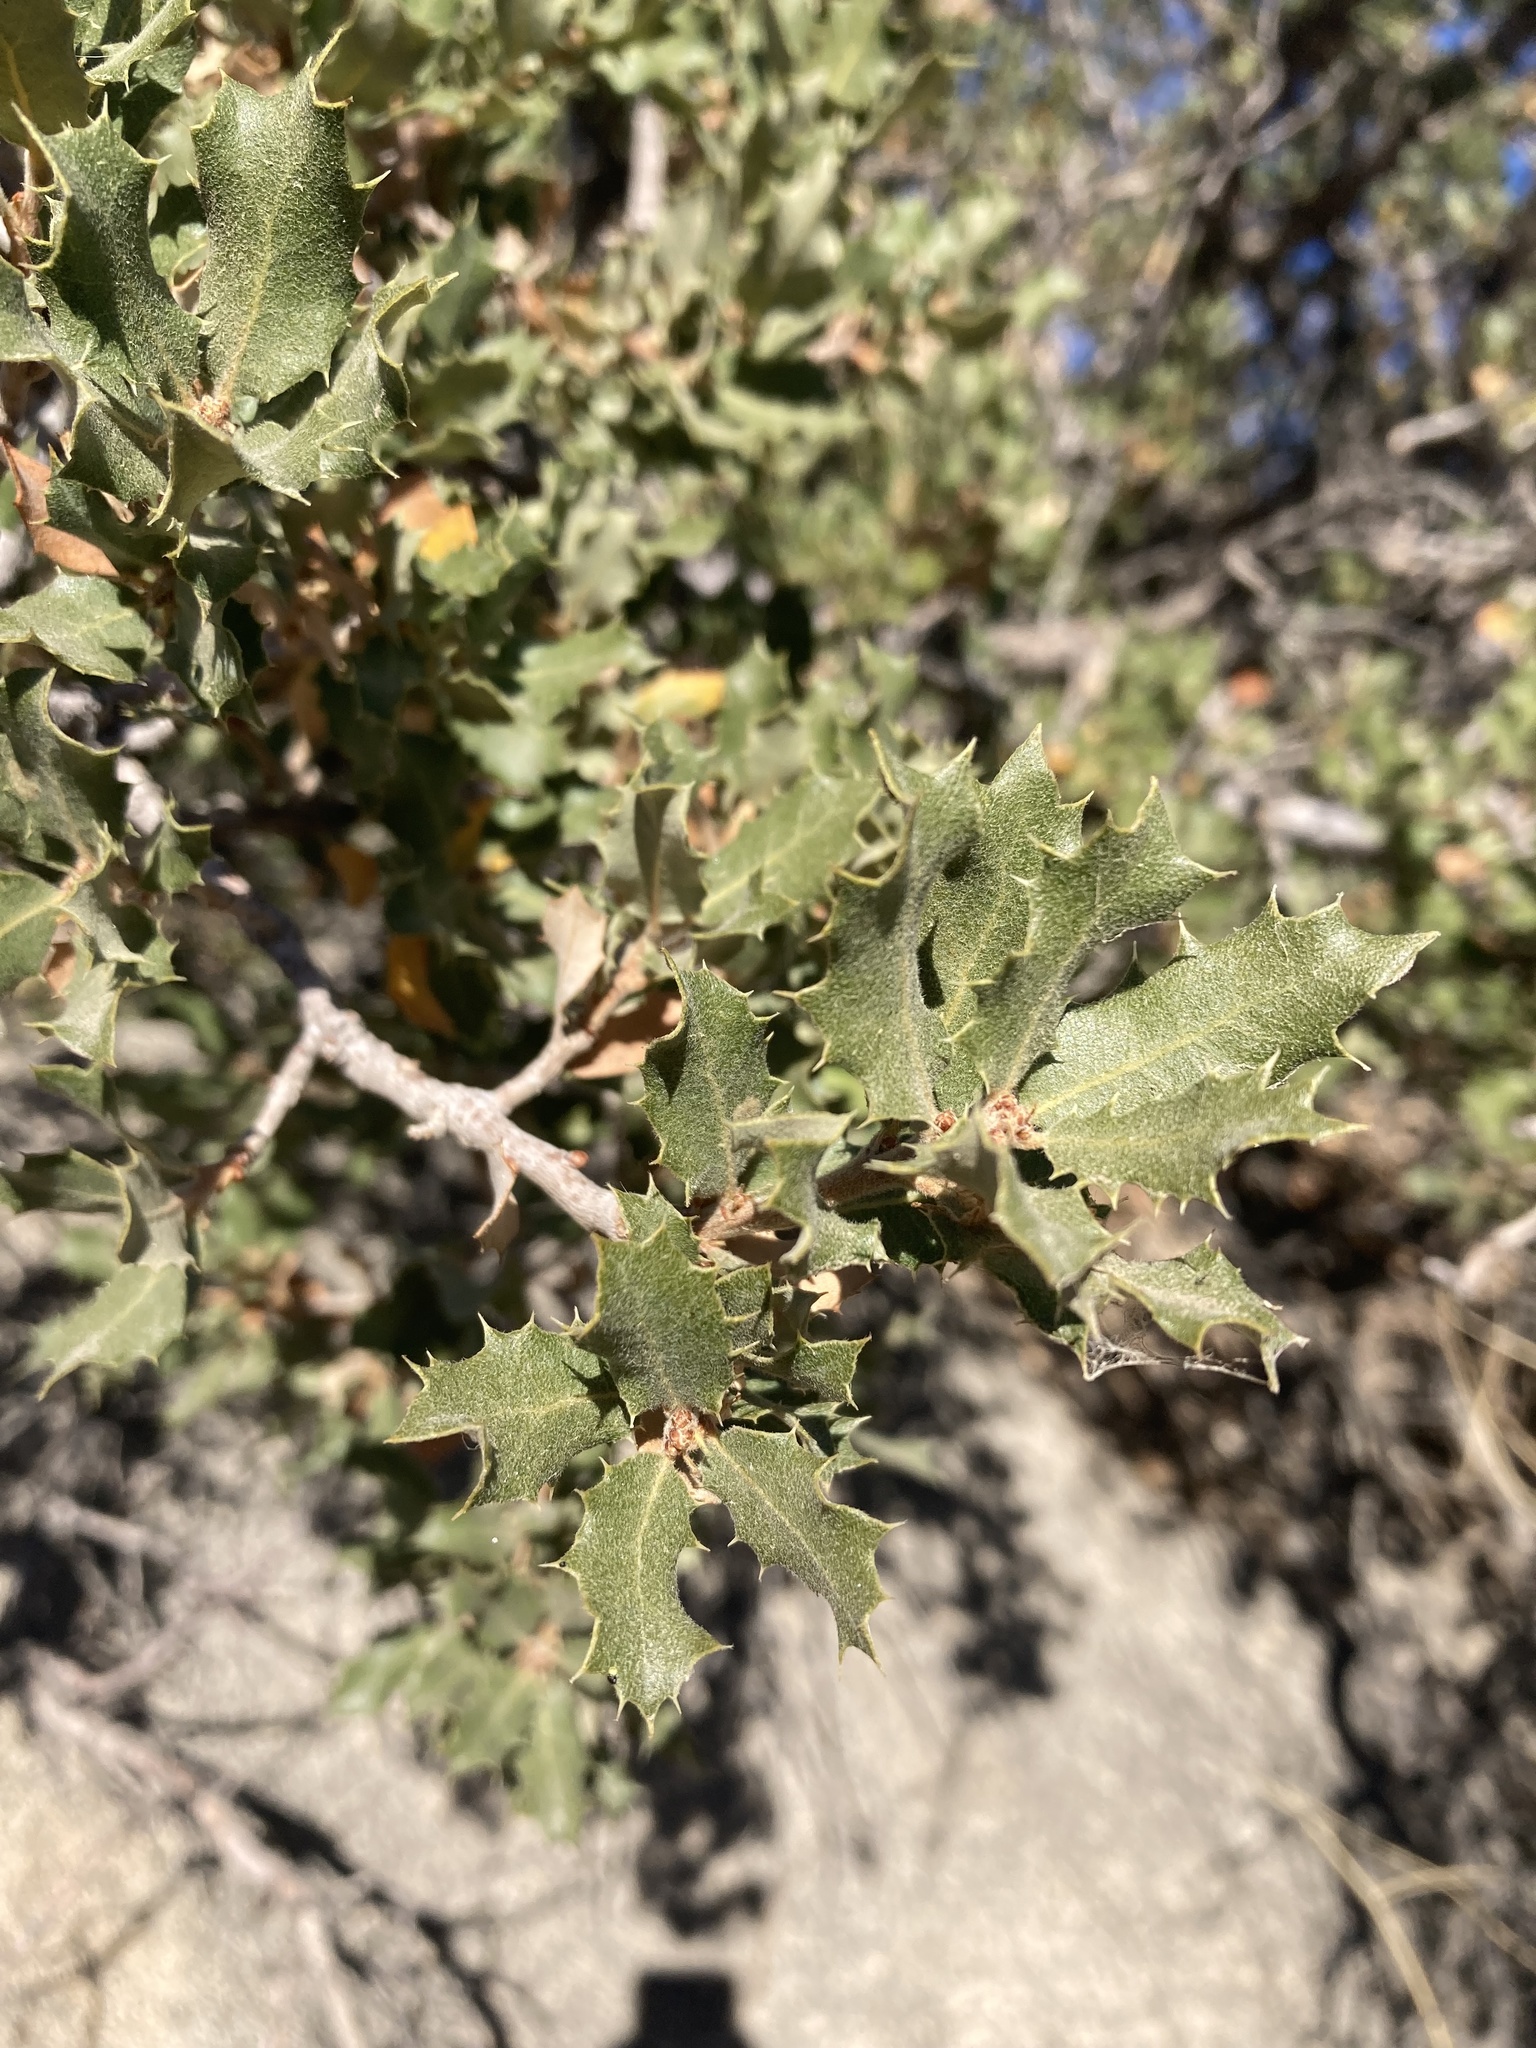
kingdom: Plantae
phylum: Tracheophyta
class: Magnoliopsida
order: Fagales
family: Fagaceae
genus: Quercus
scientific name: Quercus cornelius-mulleri
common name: Muller oak
